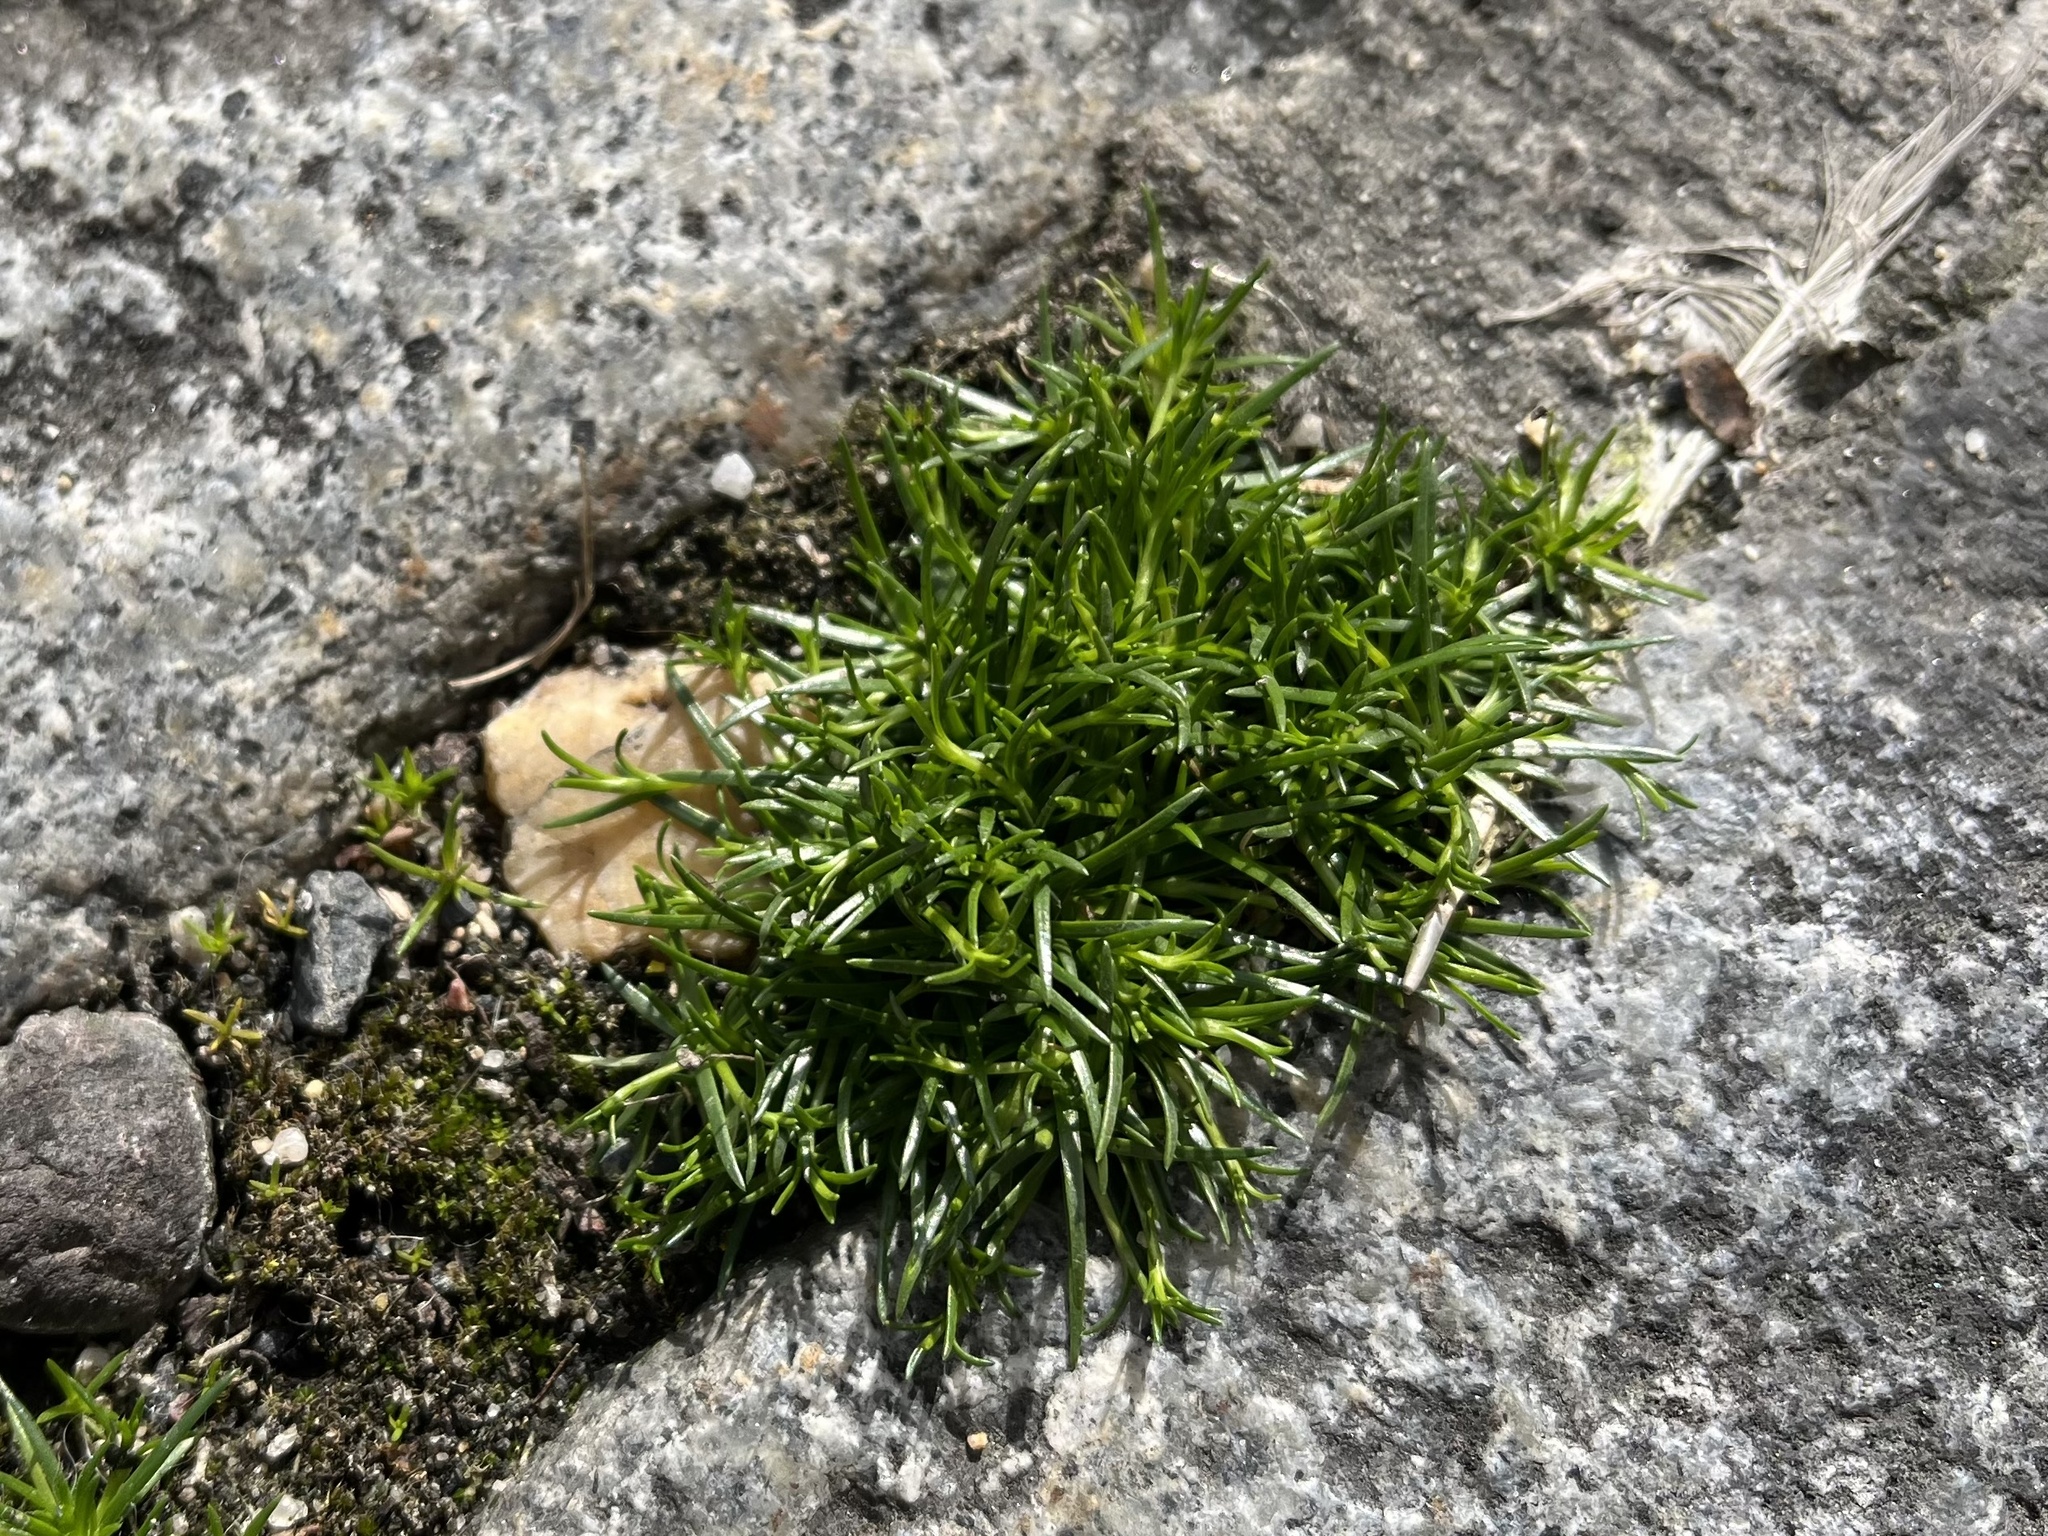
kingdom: Plantae
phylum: Tracheophyta
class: Magnoliopsida
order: Caryophyllales
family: Caryophyllaceae
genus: Sagina
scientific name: Sagina procumbens
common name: Procumbent pearlwort
